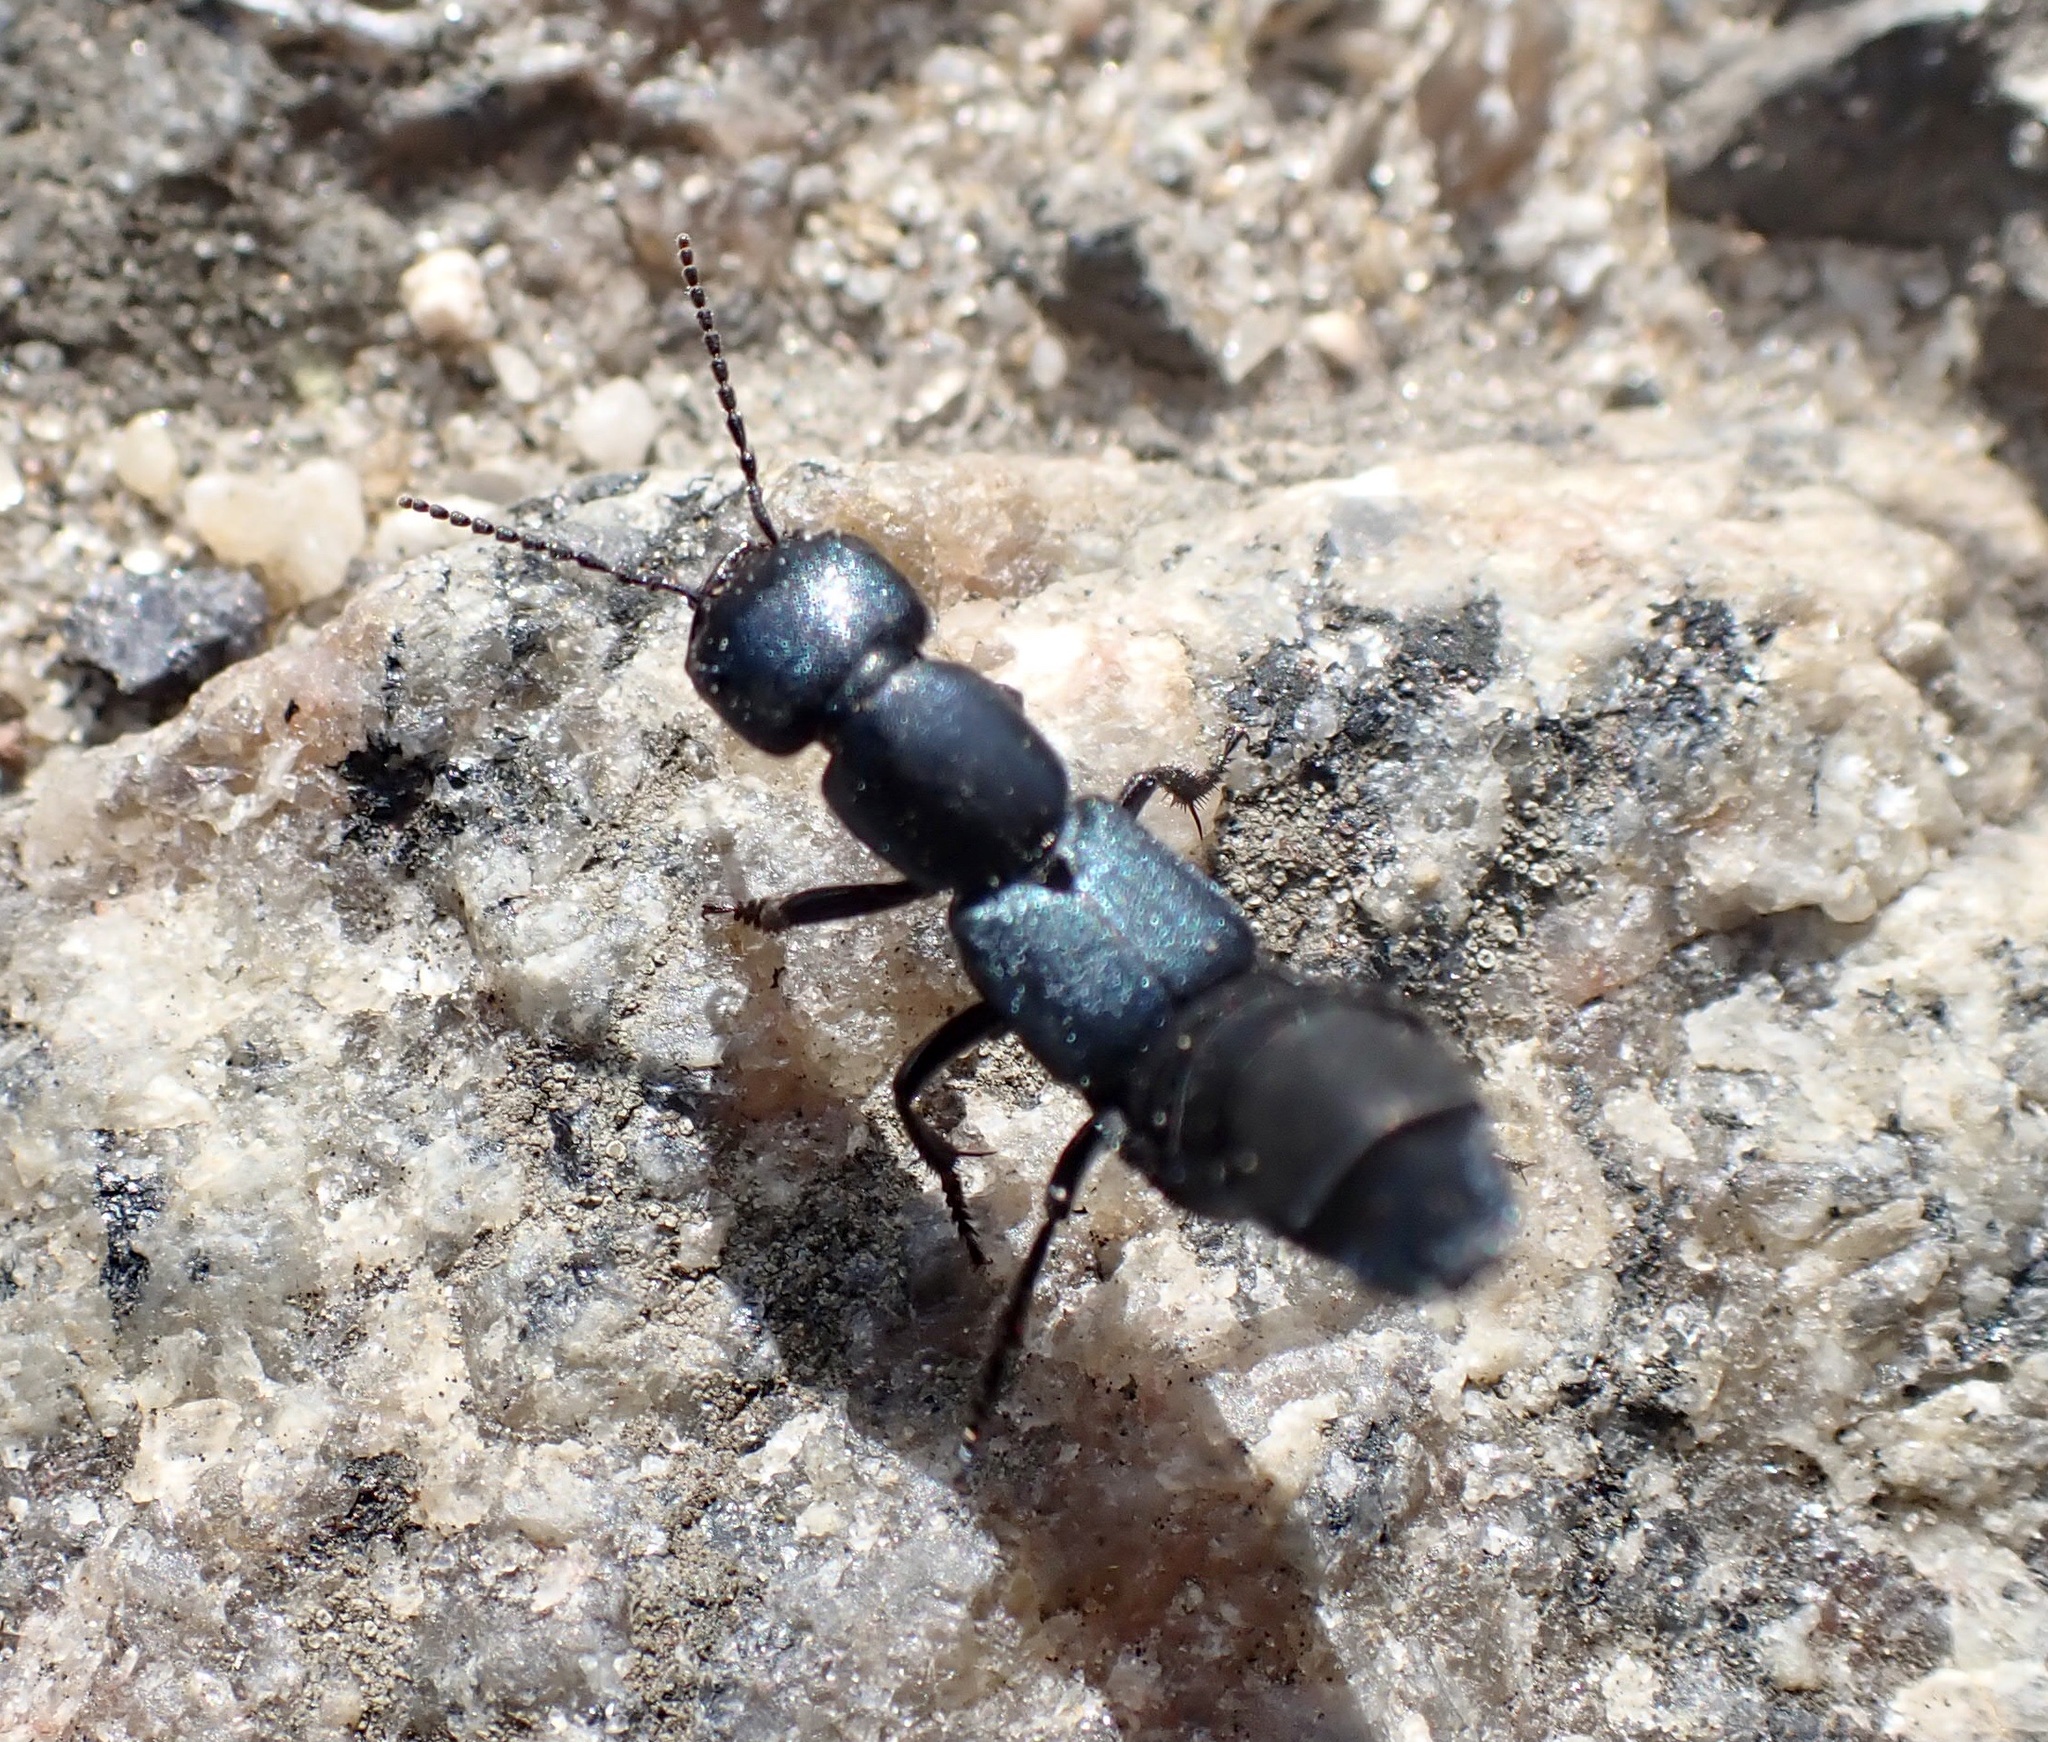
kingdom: Animalia
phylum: Arthropoda
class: Insecta
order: Coleoptera
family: Staphylinidae
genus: Ocypus
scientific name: Ocypus ophthalmicus
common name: Blue rove-beetle
